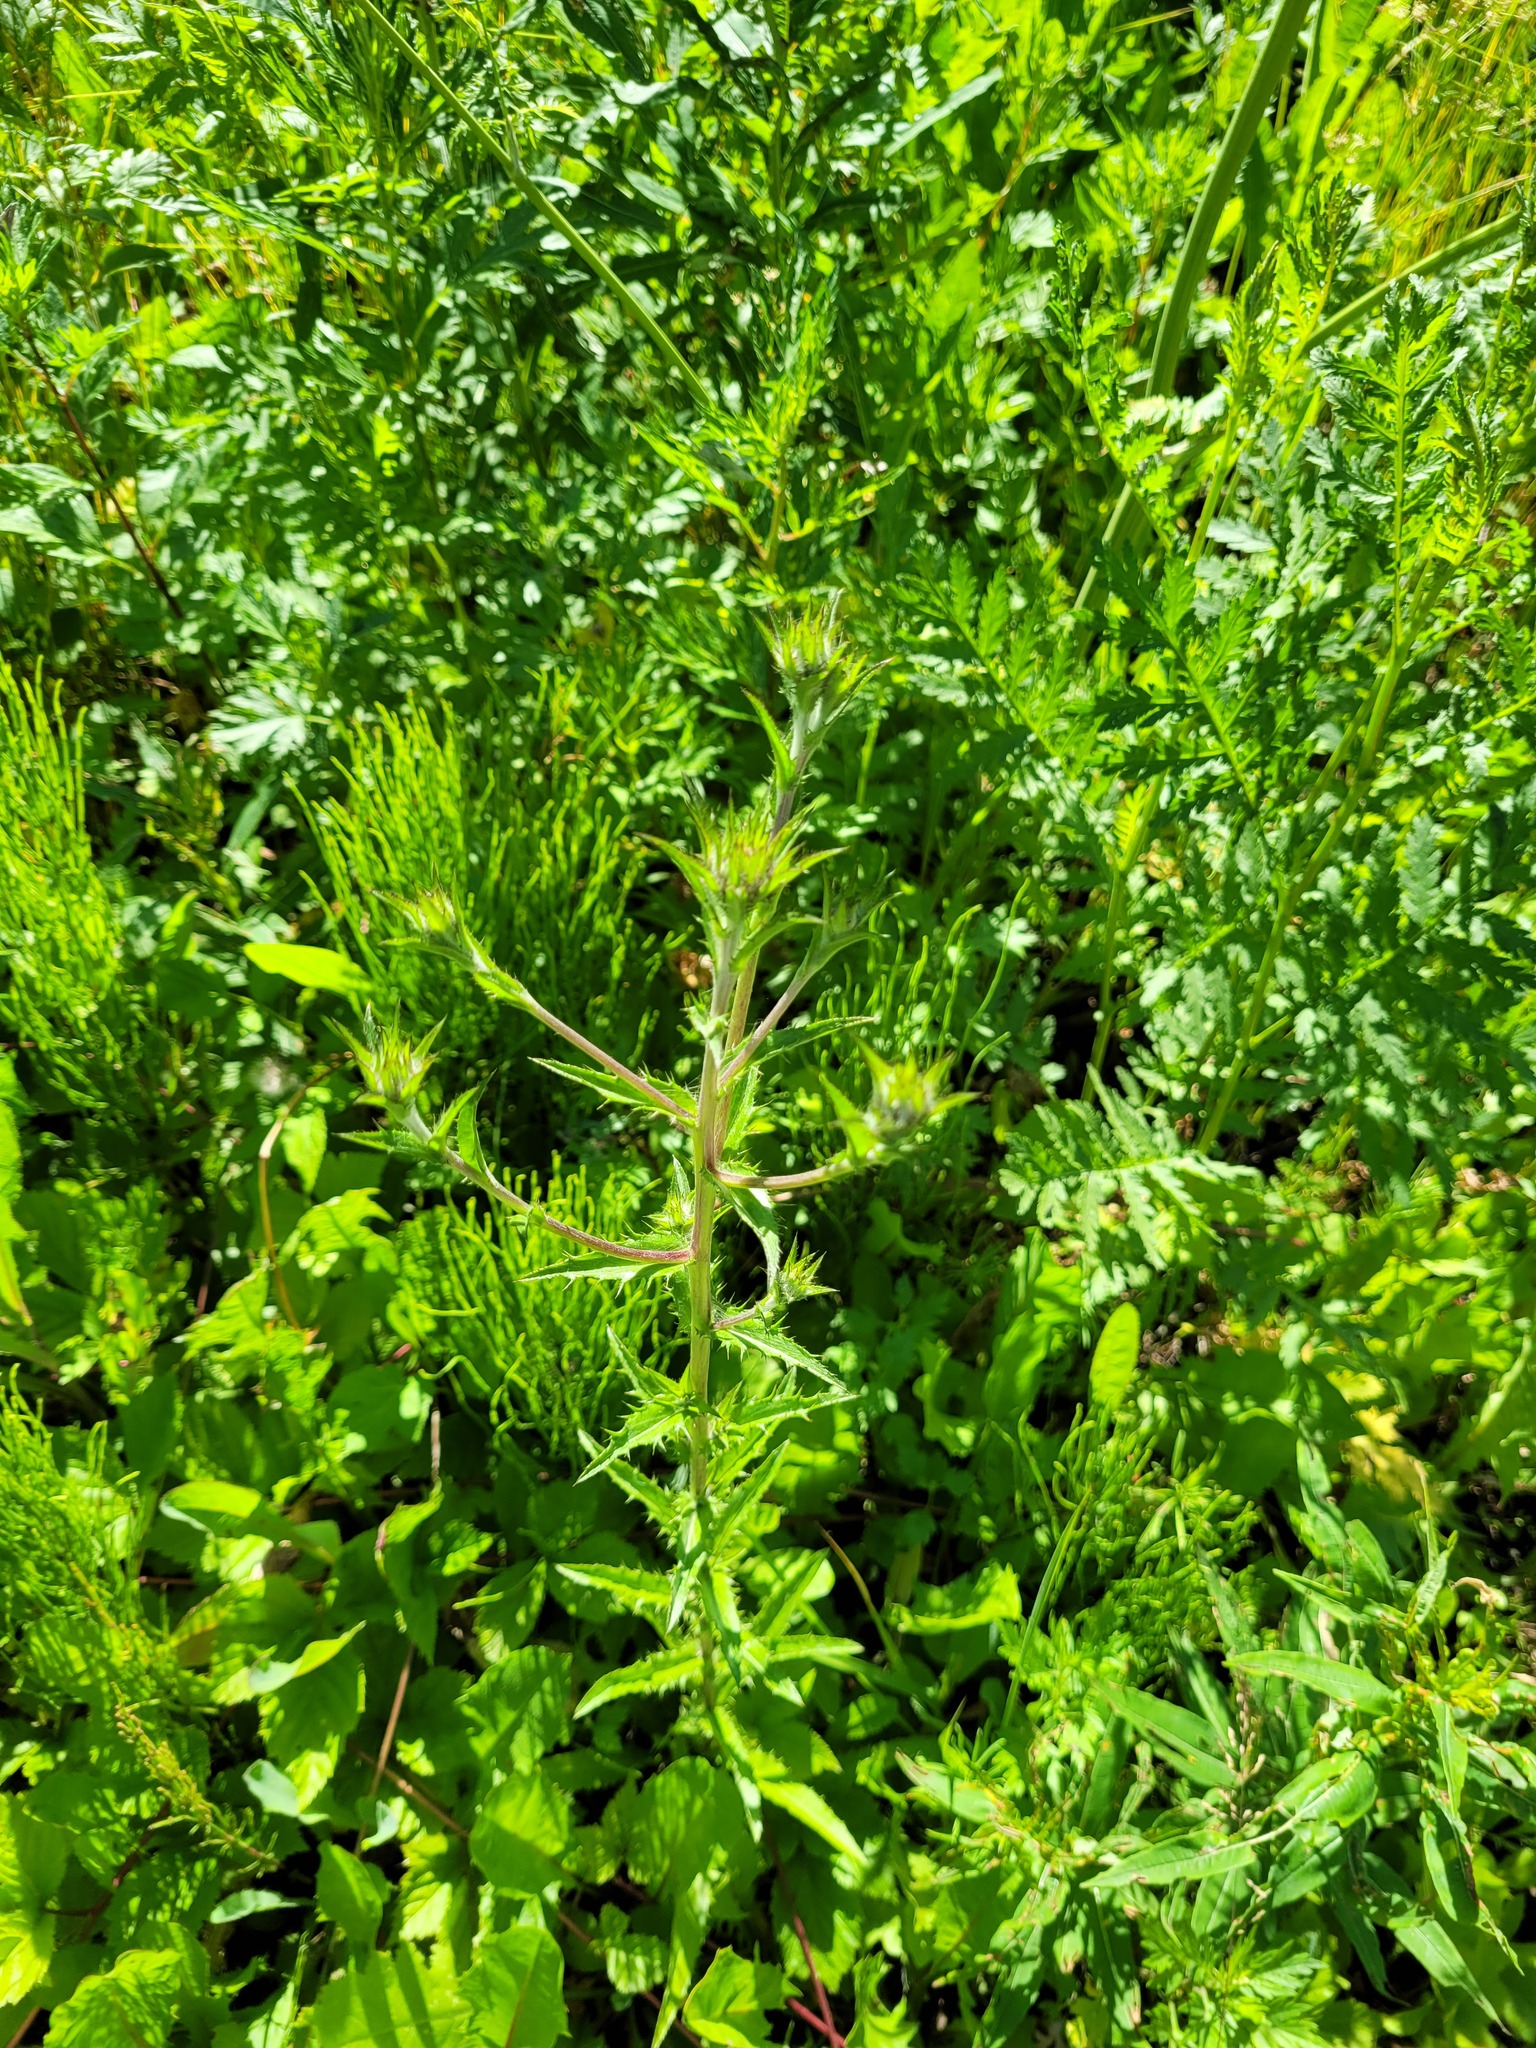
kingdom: Plantae
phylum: Tracheophyta
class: Magnoliopsida
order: Asterales
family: Asteraceae
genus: Carlina
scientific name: Carlina biebersteinii
